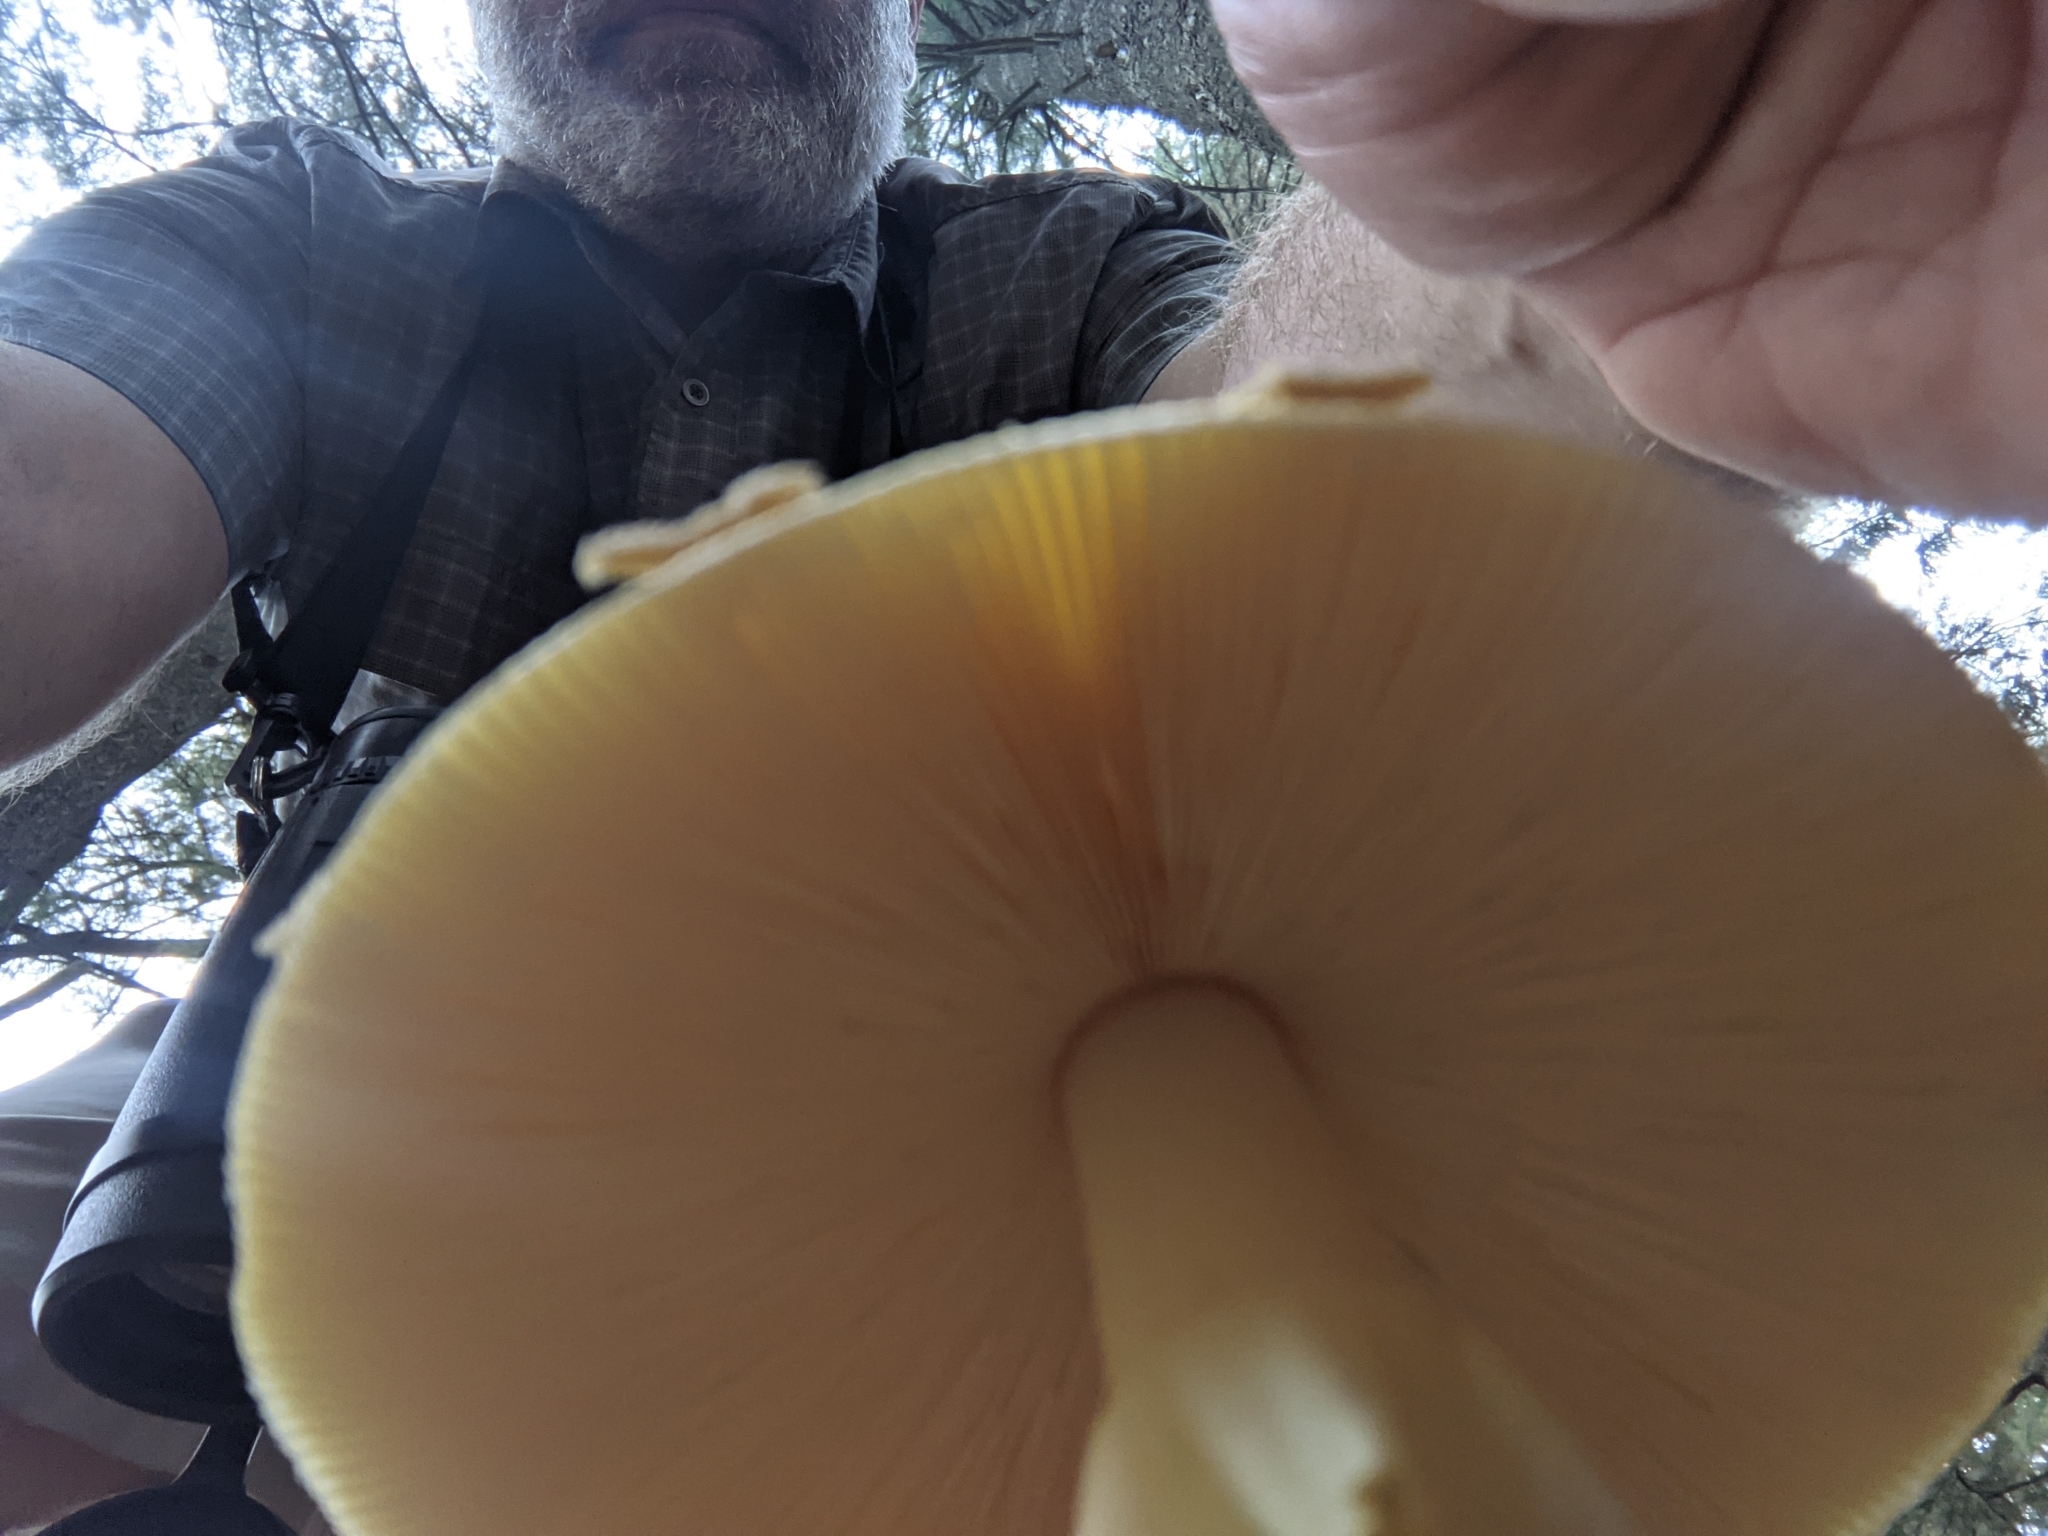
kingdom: Fungi
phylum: Basidiomycota
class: Agaricomycetes
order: Agaricales
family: Amanitaceae
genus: Amanita
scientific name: Amanita muscaria
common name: Fly agaric
